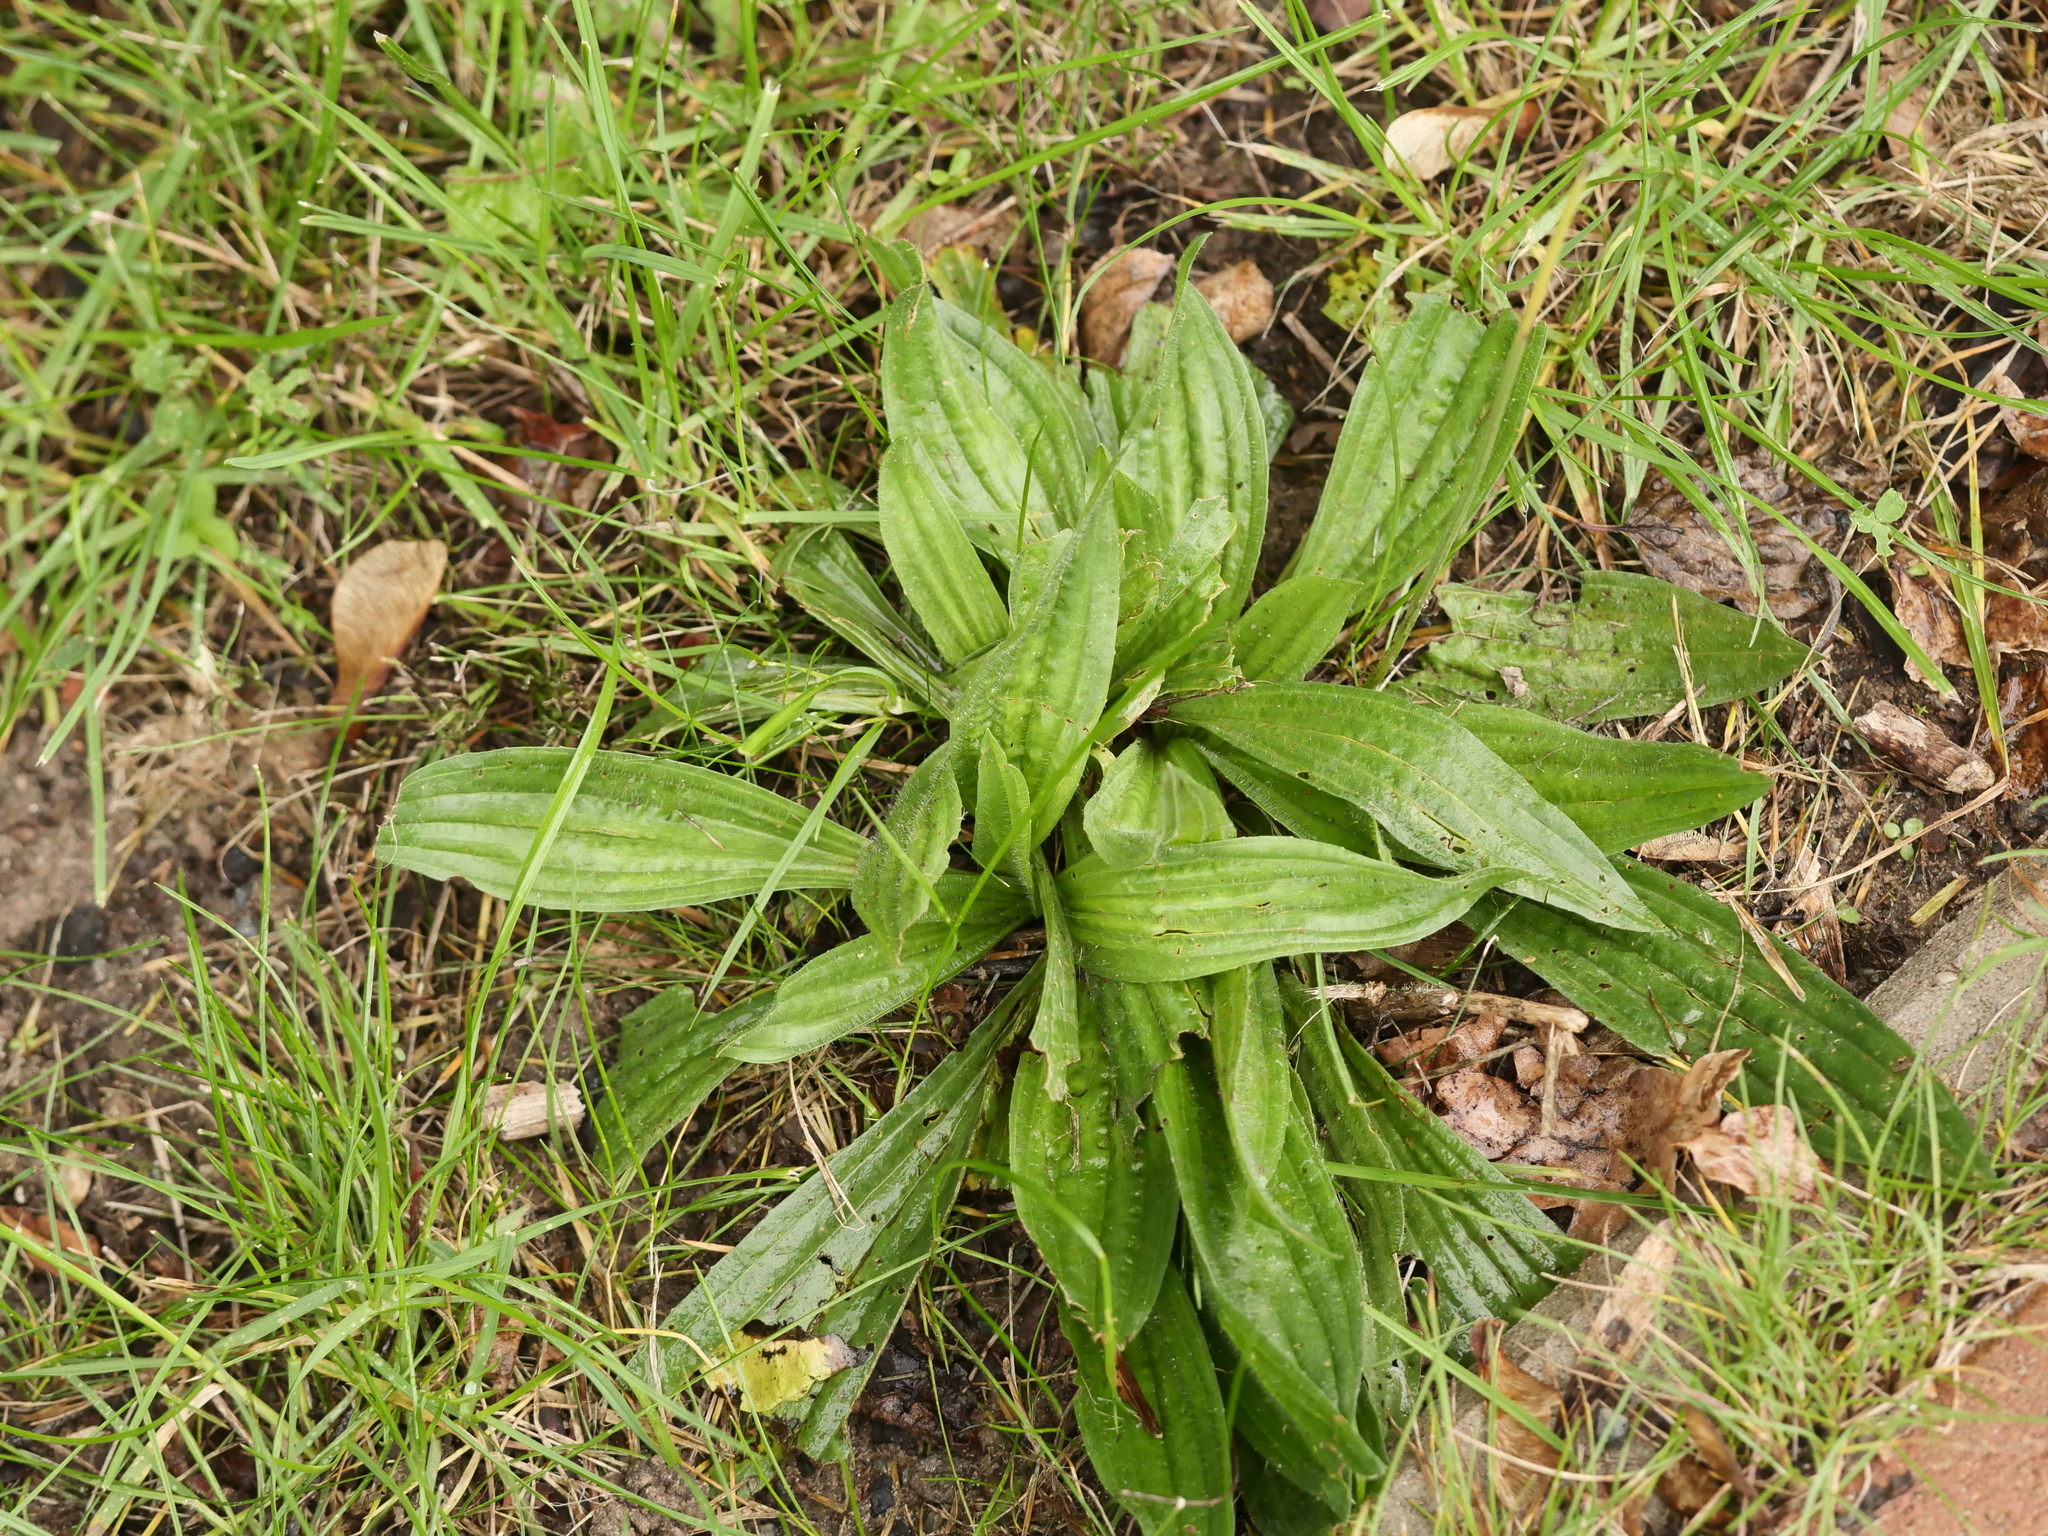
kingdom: Plantae
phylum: Tracheophyta
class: Magnoliopsida
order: Lamiales
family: Plantaginaceae
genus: Plantago
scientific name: Plantago lanceolata
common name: Ribwort plantain
